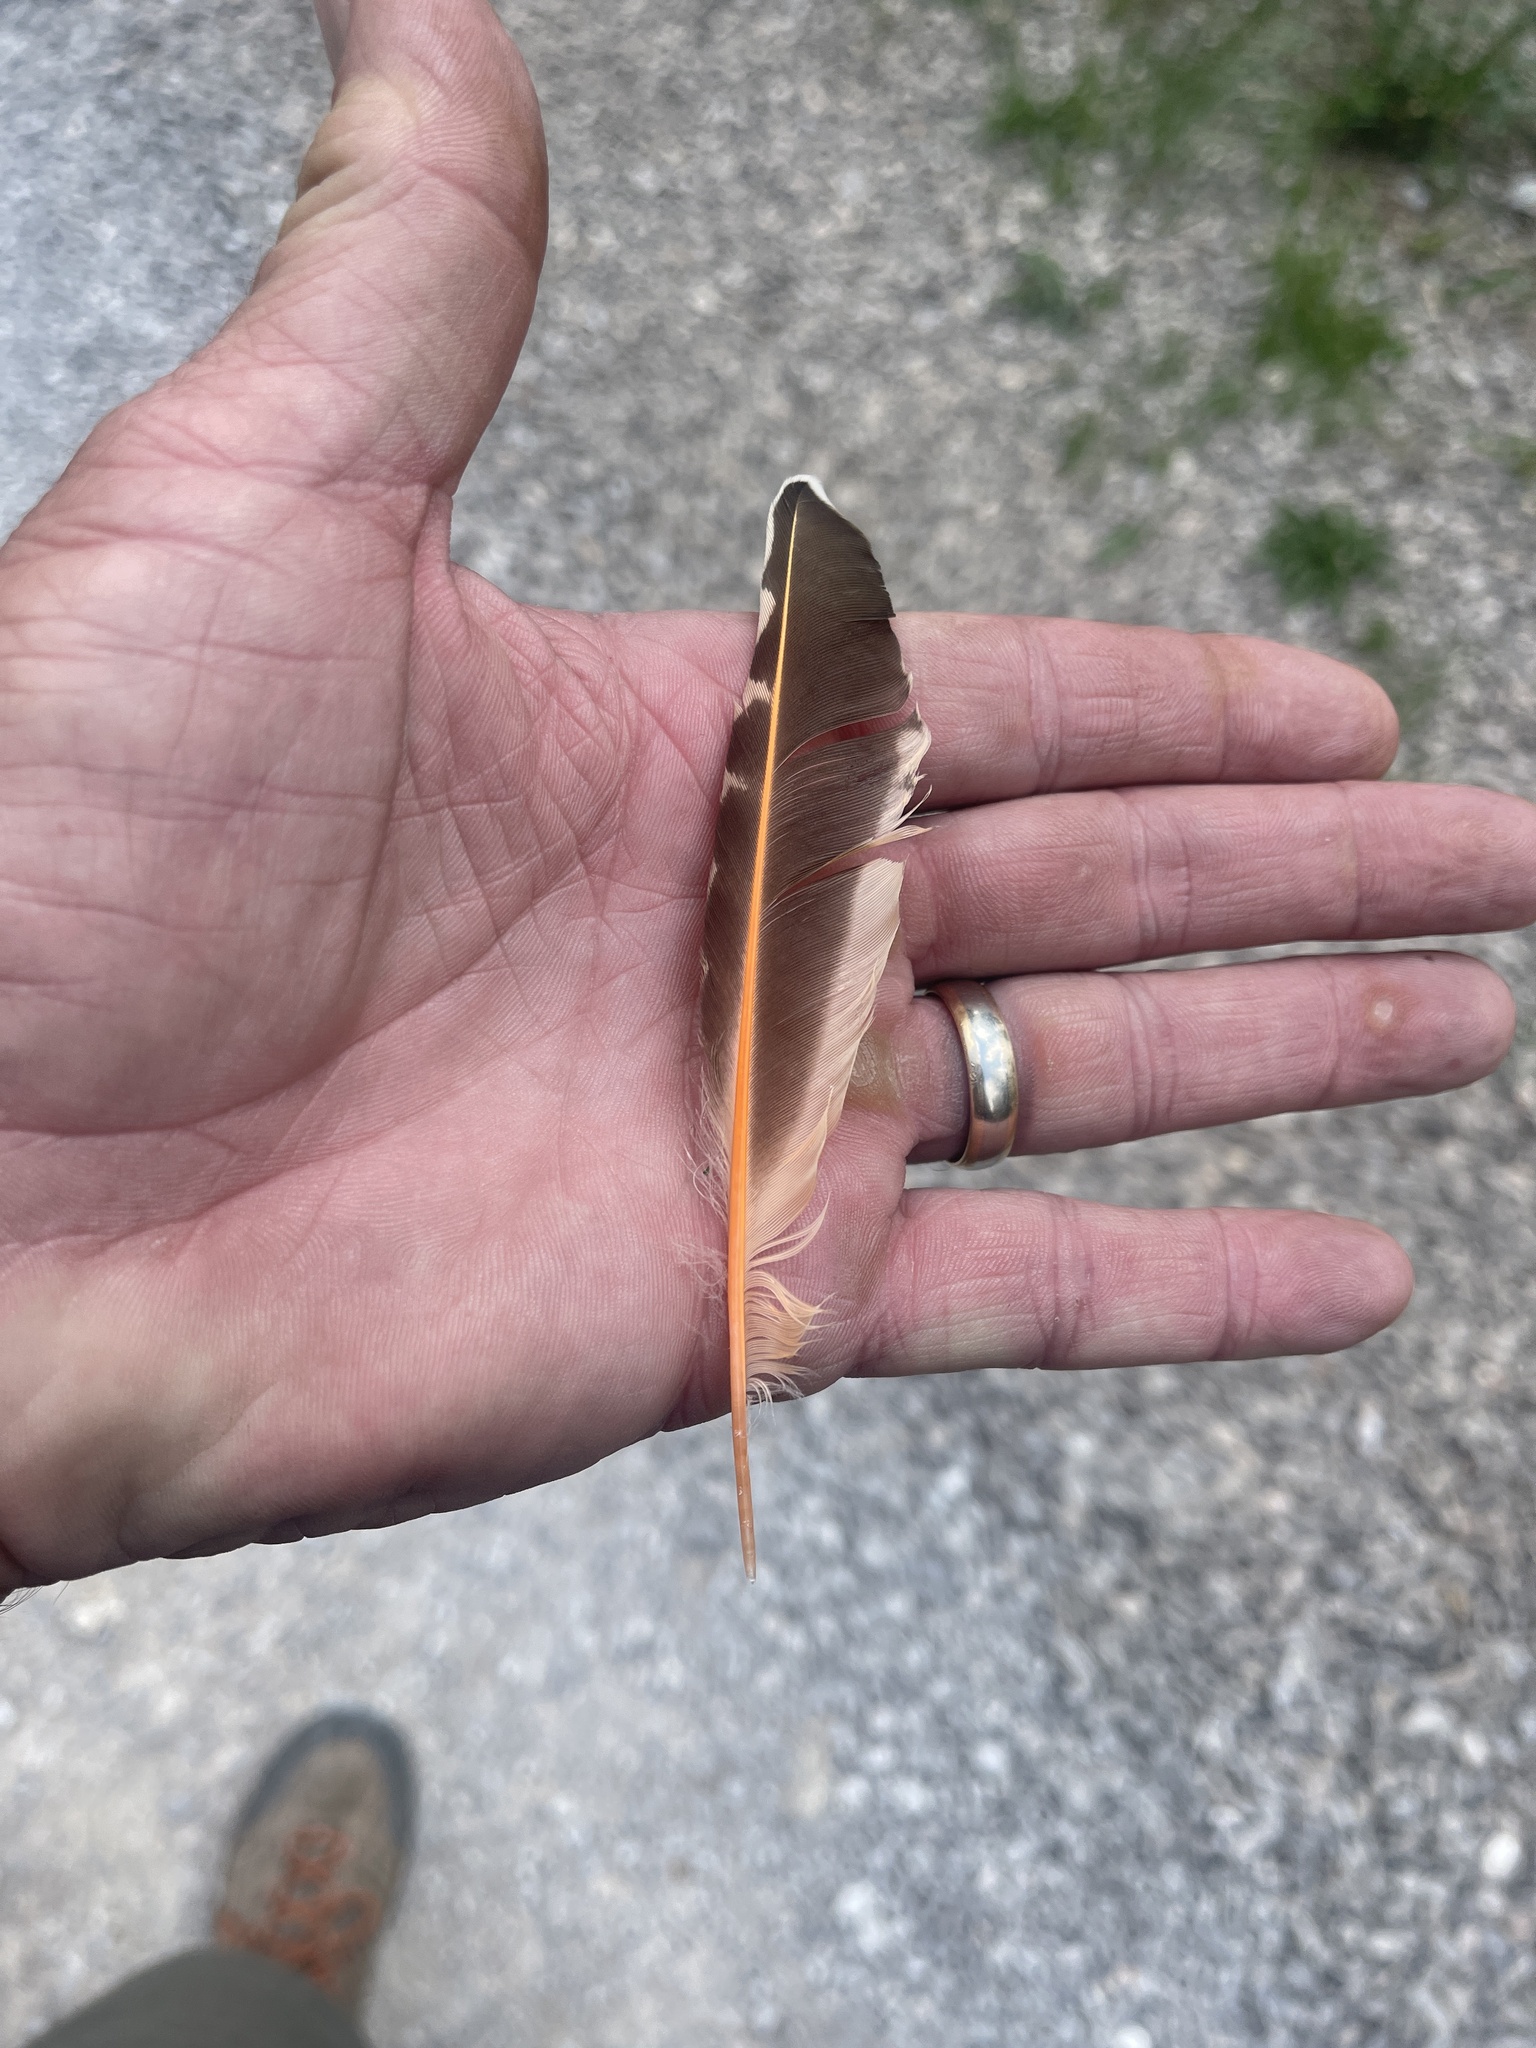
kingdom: Animalia
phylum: Chordata
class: Aves
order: Piciformes
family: Picidae
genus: Colaptes
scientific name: Colaptes auratus
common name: Northern flicker
